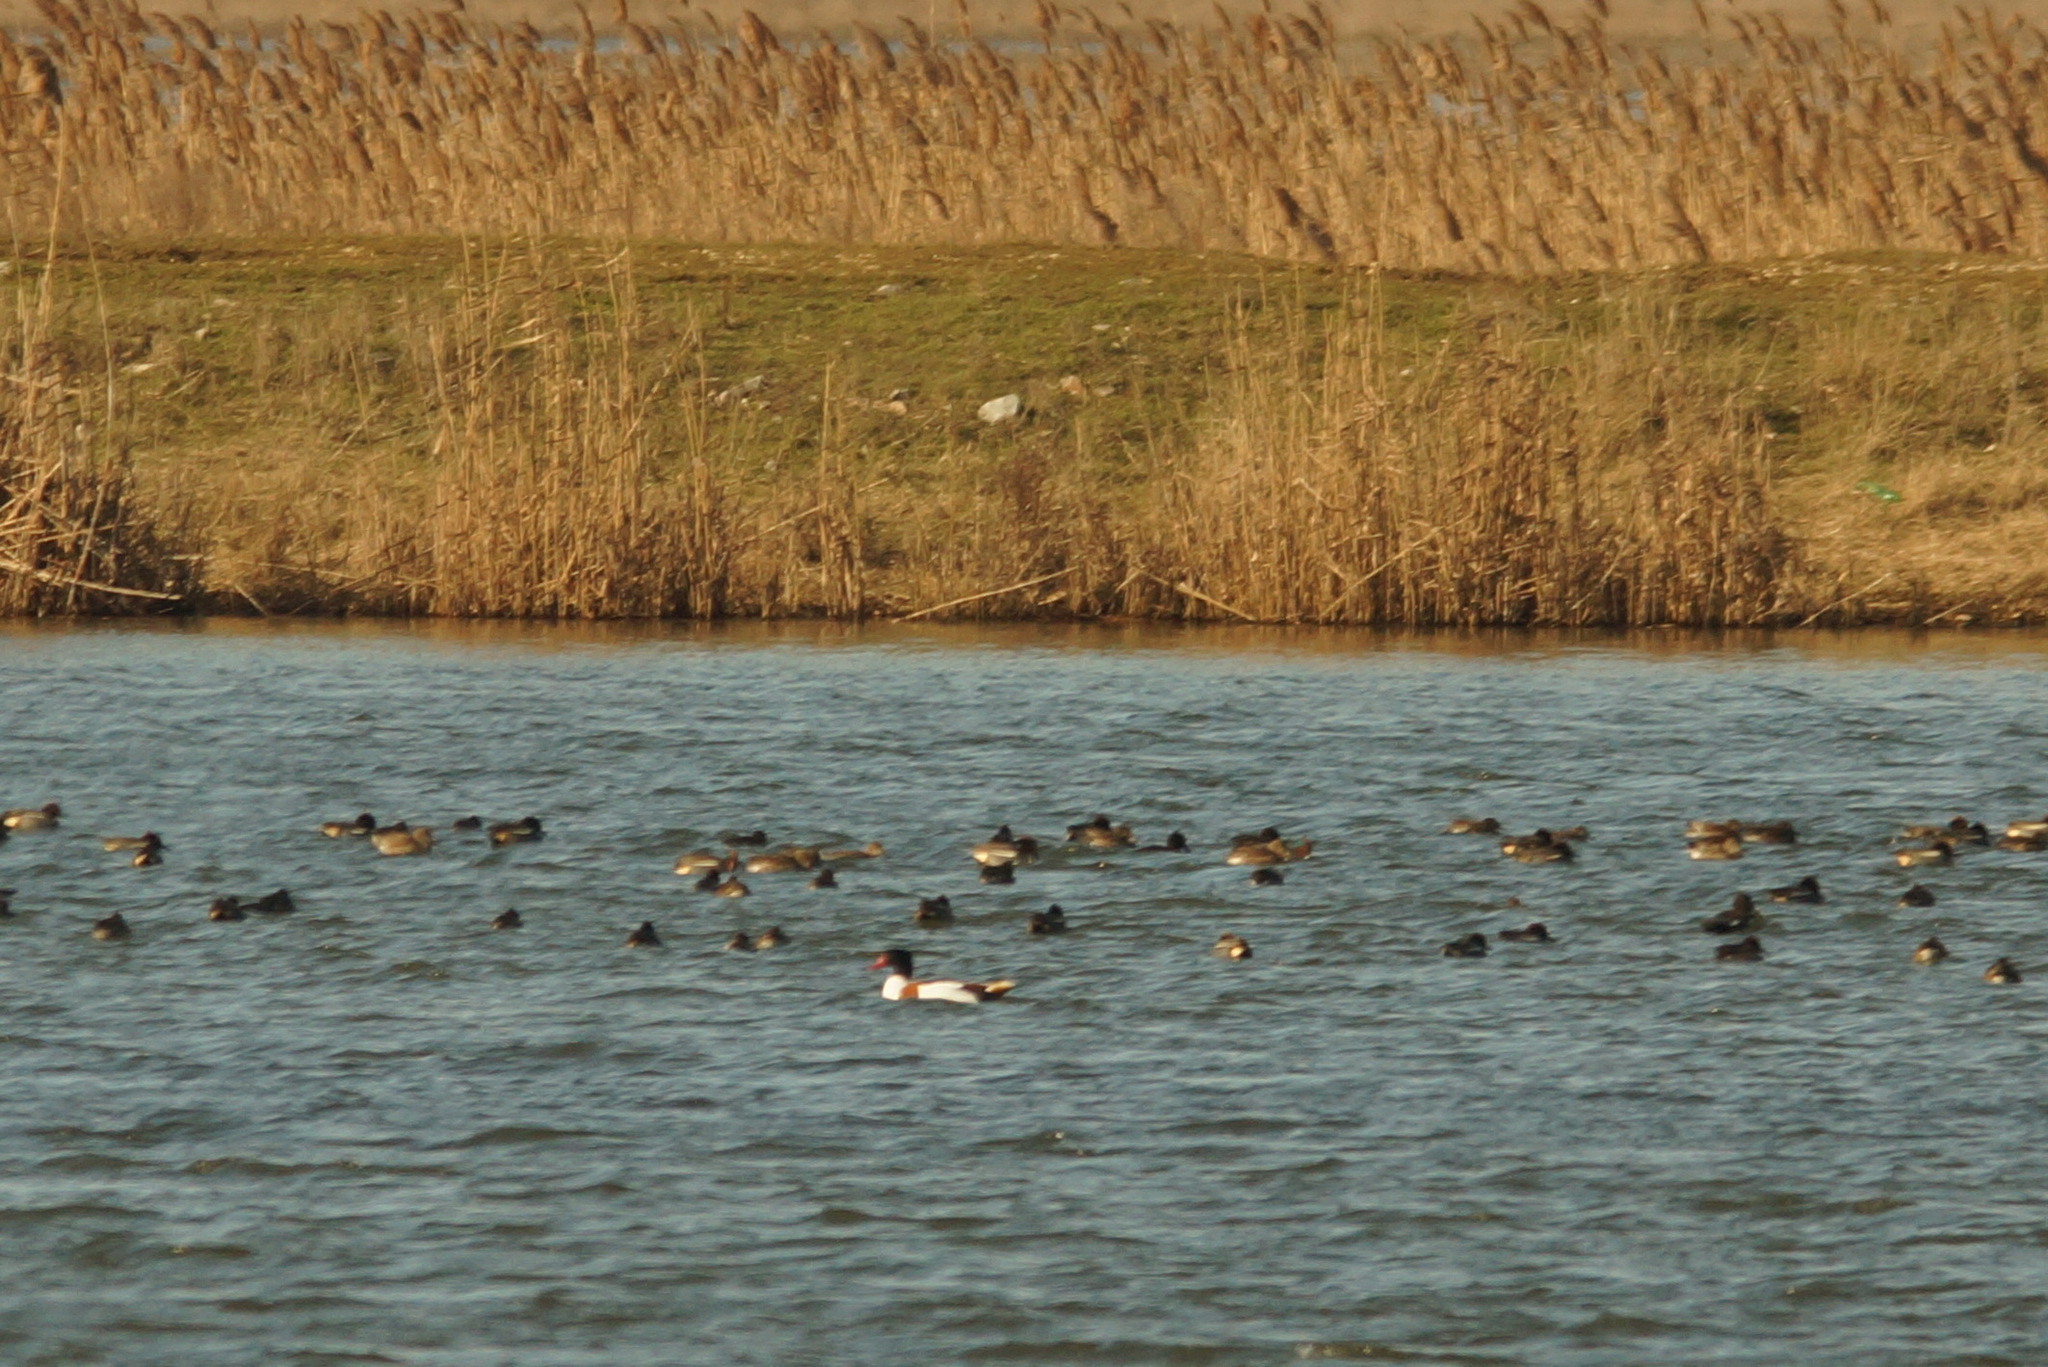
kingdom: Animalia
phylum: Chordata
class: Aves
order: Anseriformes
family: Anatidae
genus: Anas
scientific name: Anas crecca
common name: Eurasian teal
